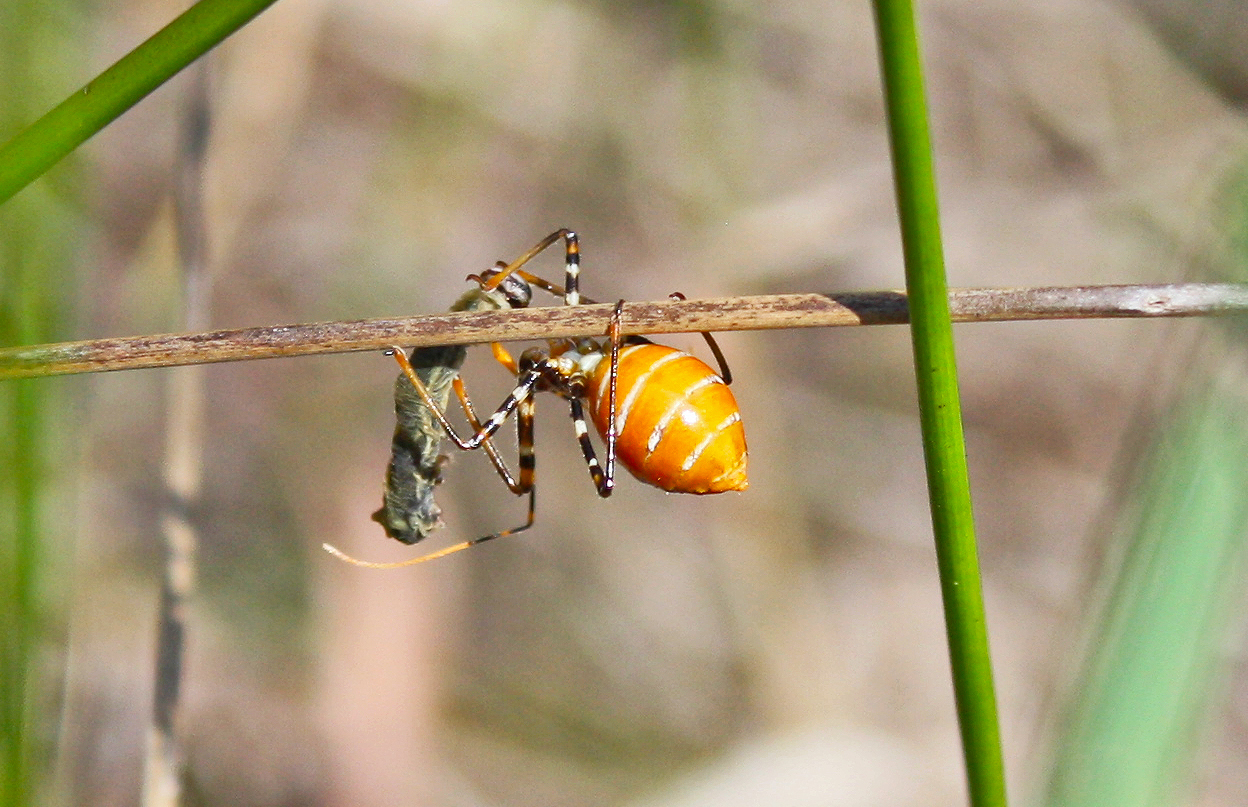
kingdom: Animalia
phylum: Arthropoda
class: Insecta
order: Hemiptera
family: Reduviidae
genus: Pristhesancus
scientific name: Pristhesancus plagipennis
